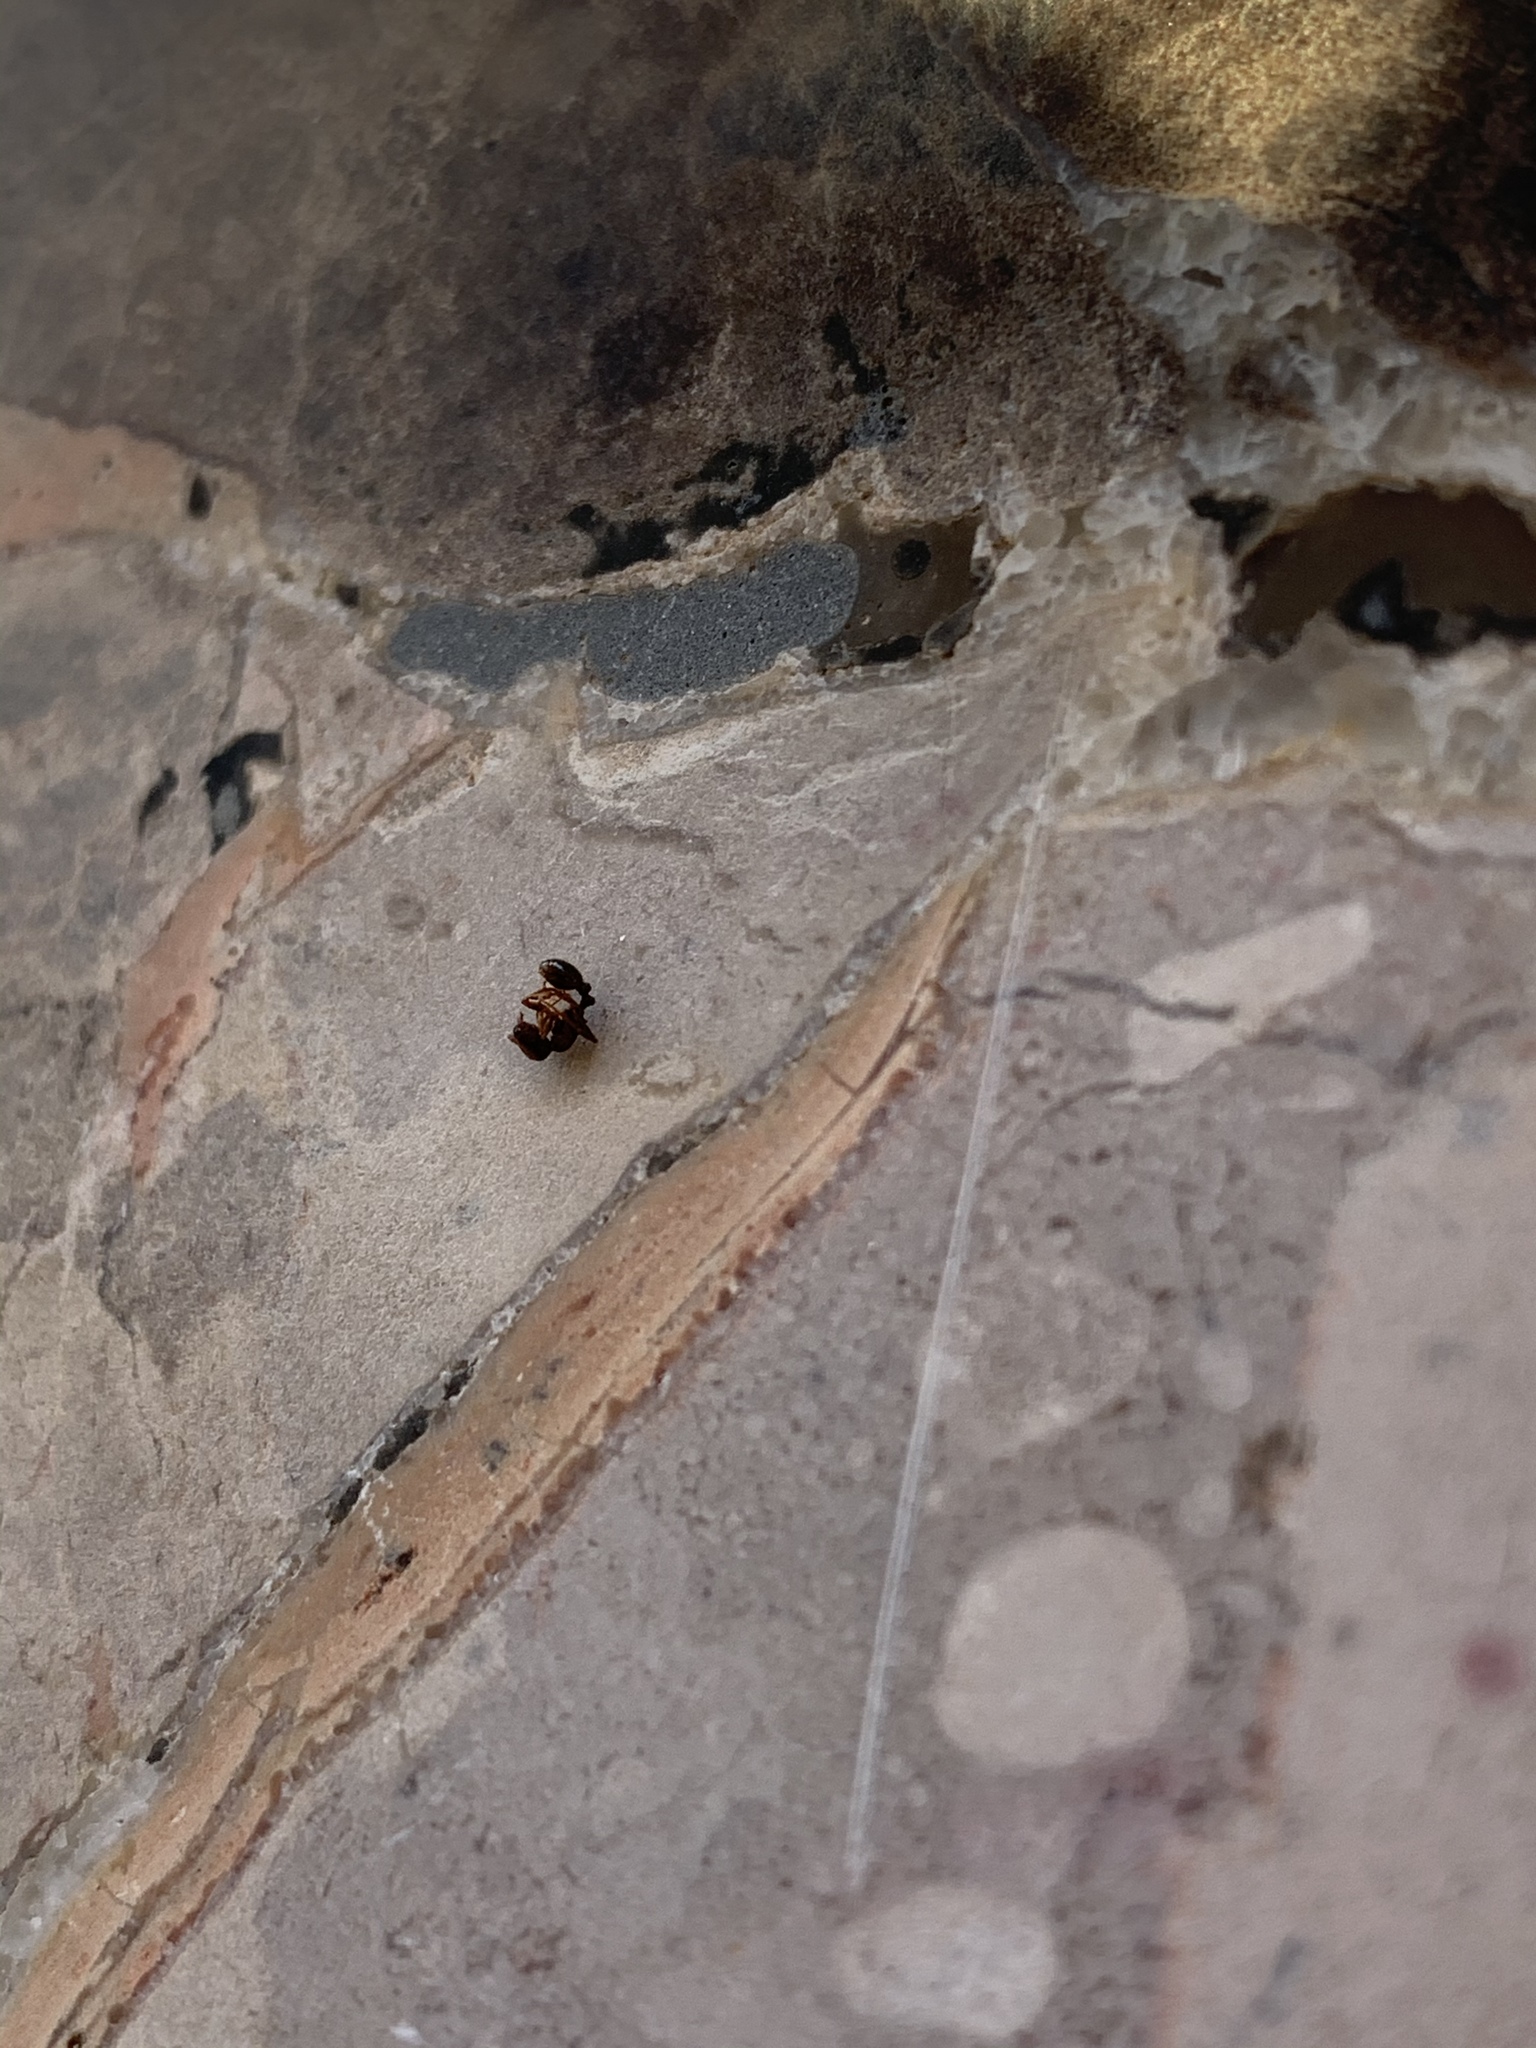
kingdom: Animalia
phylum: Arthropoda
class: Insecta
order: Hymenoptera
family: Formicidae
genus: Tetramorium
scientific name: Tetramorium immigrans
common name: Pavement ant
